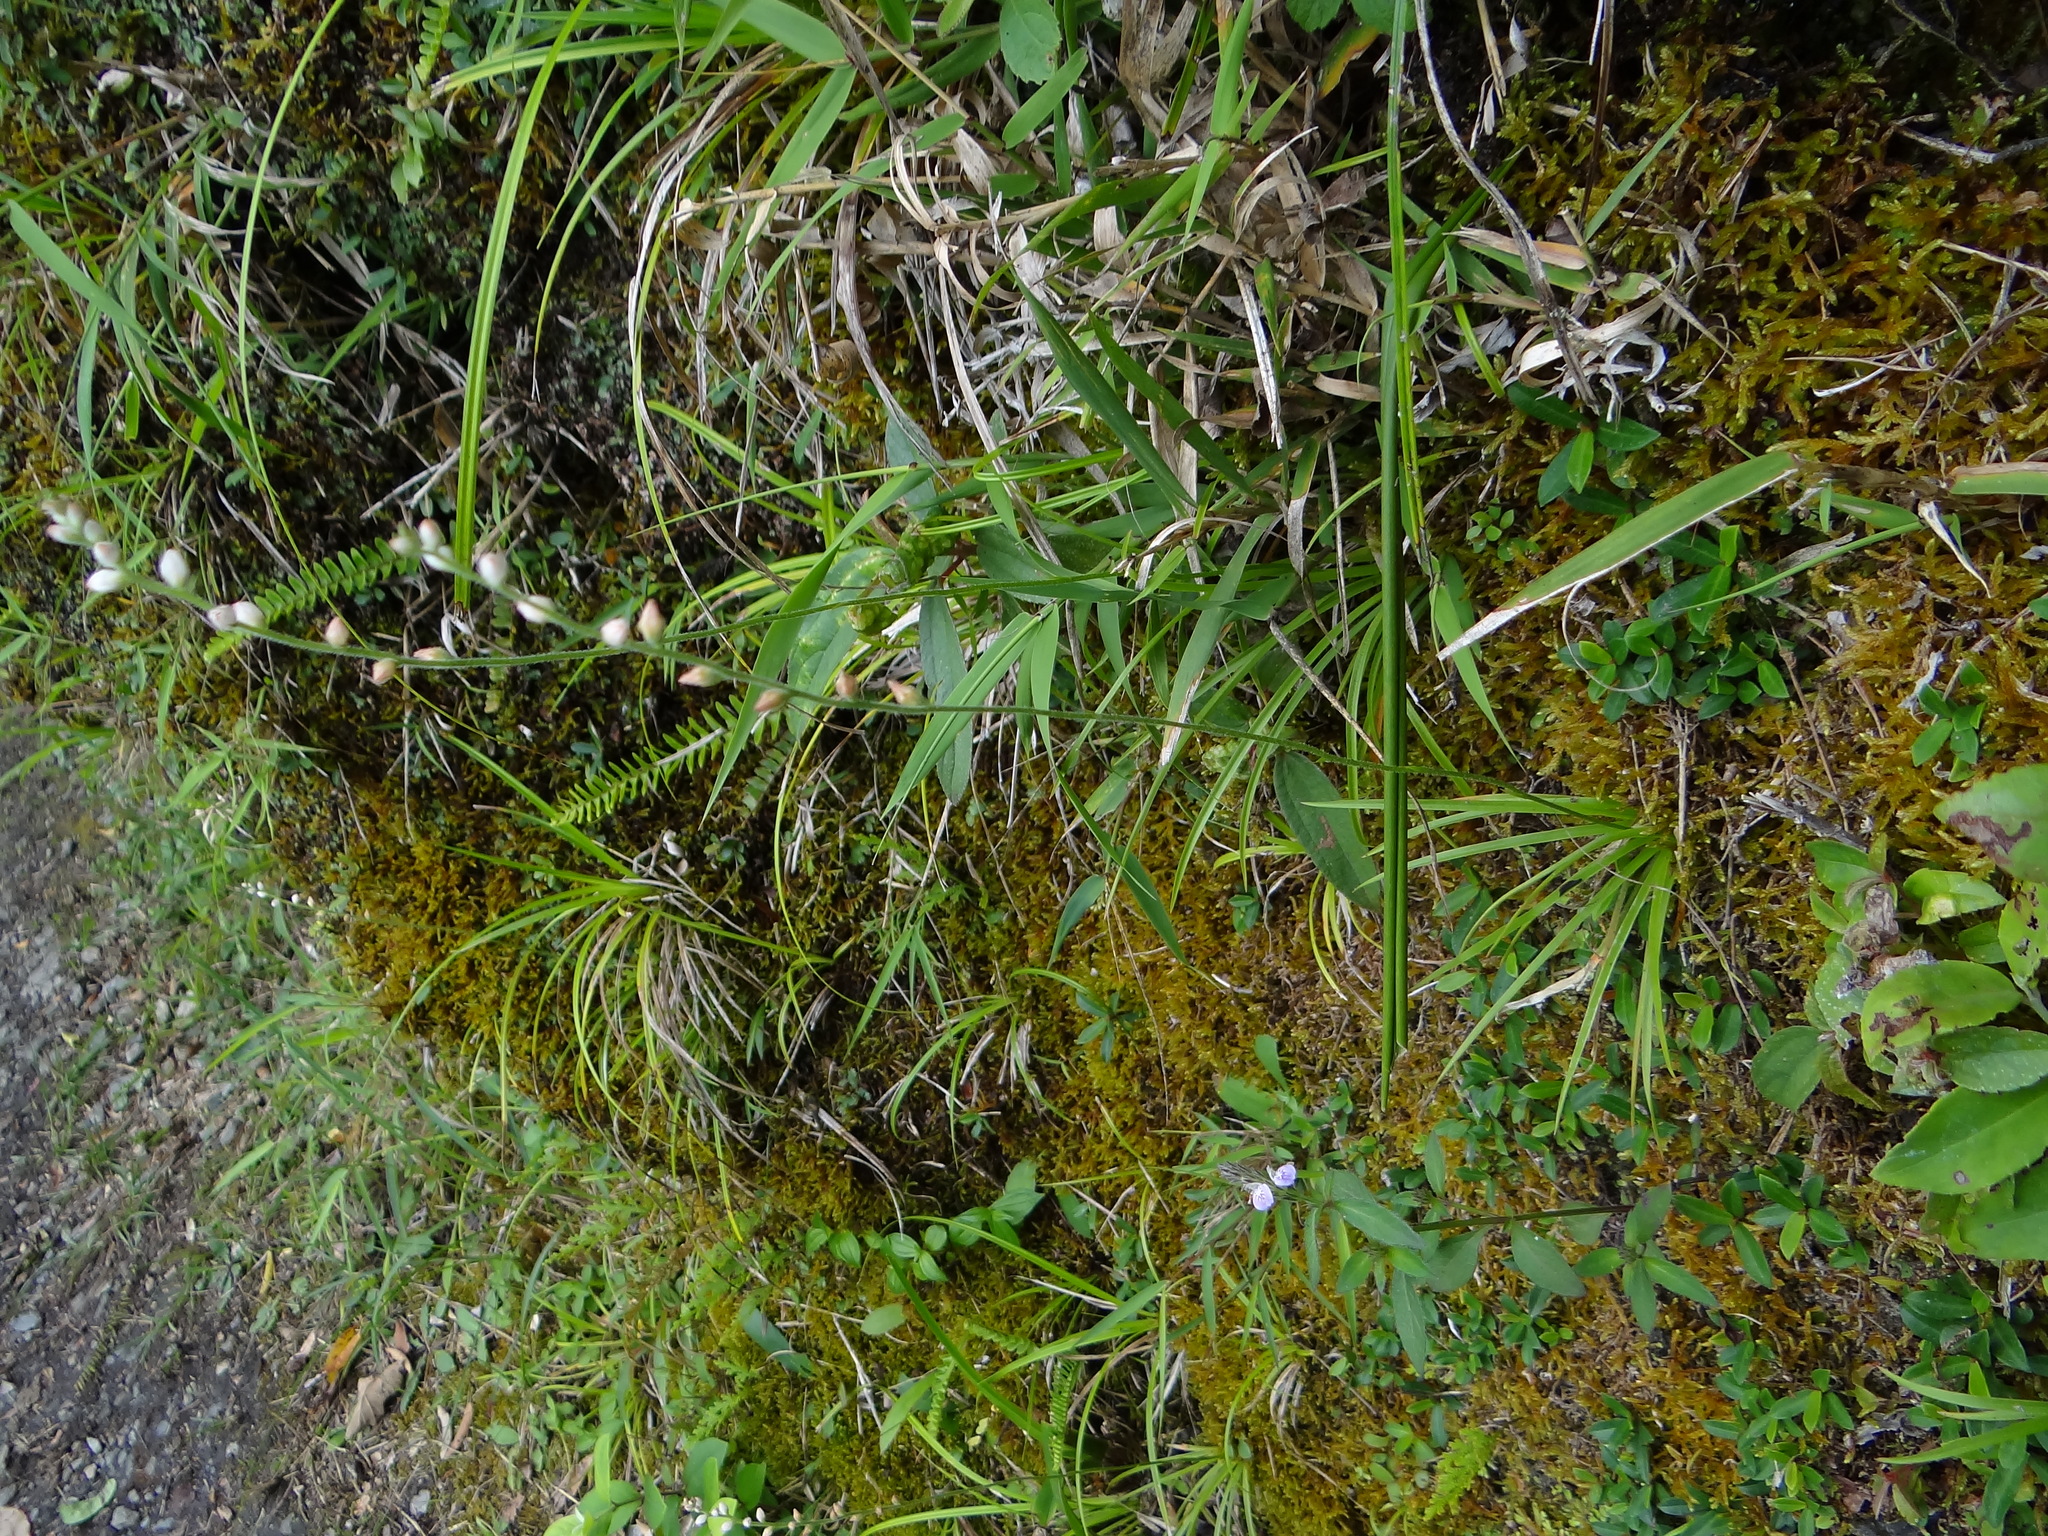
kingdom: Plantae
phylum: Tracheophyta
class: Liliopsida
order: Dioscoreales
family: Nartheciaceae
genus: Aletris
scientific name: Aletris spicata
